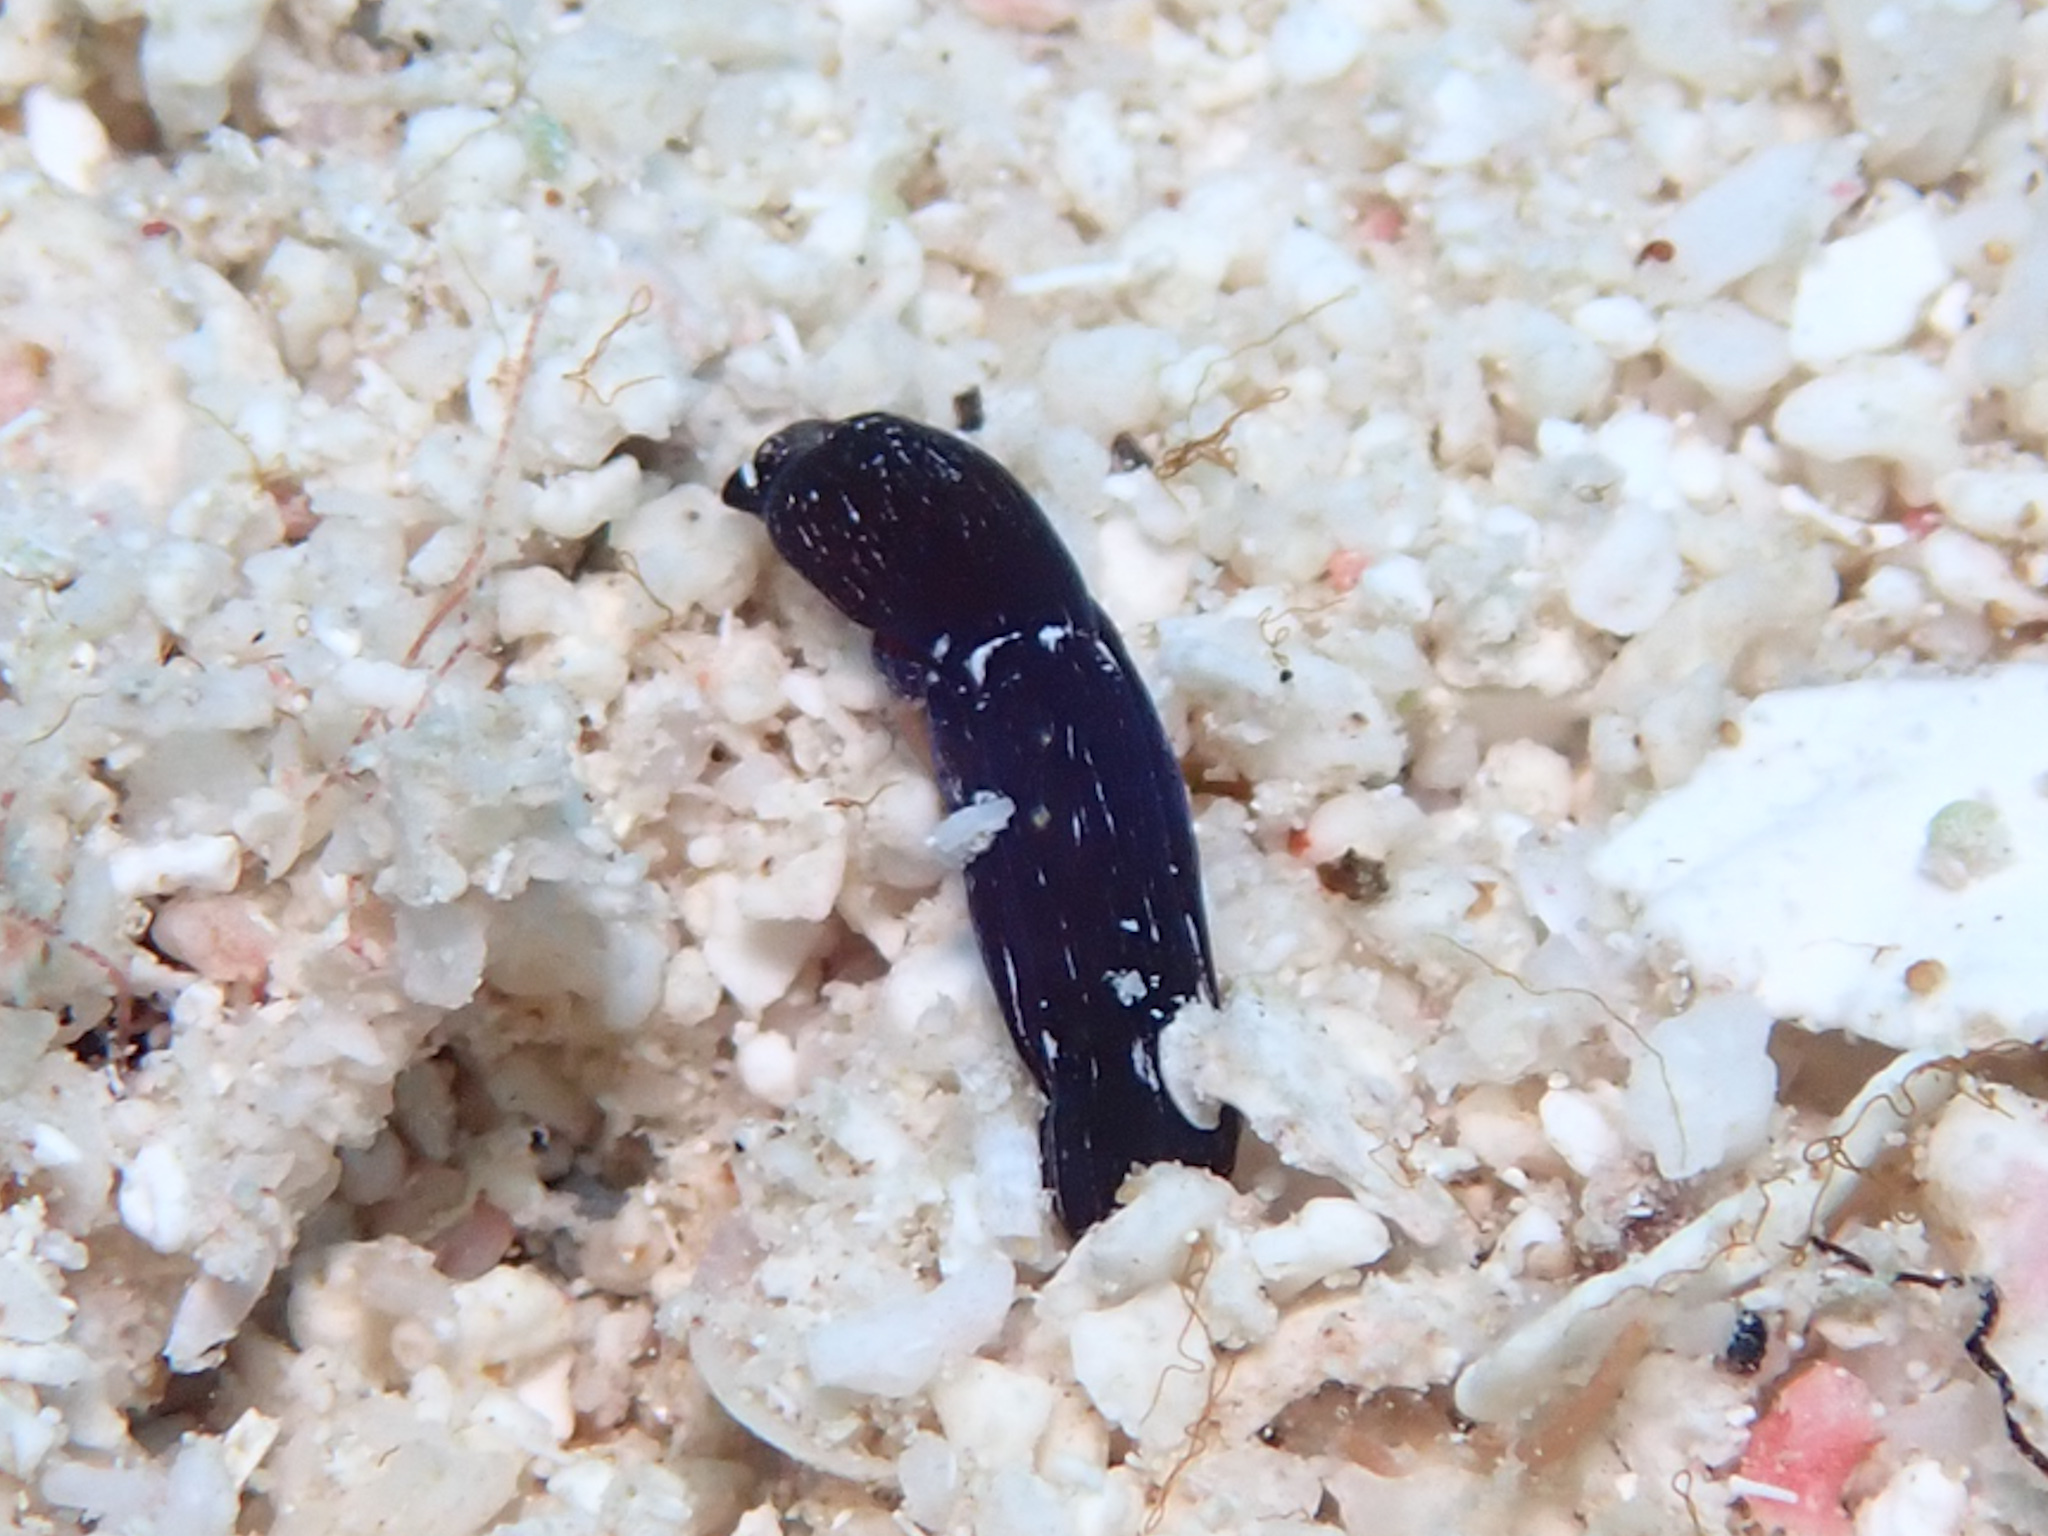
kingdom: Animalia
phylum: Mollusca
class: Gastropoda
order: Cephalaspidea
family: Aglajidae
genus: Nakamigawaia
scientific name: Nakamigawaia felis
